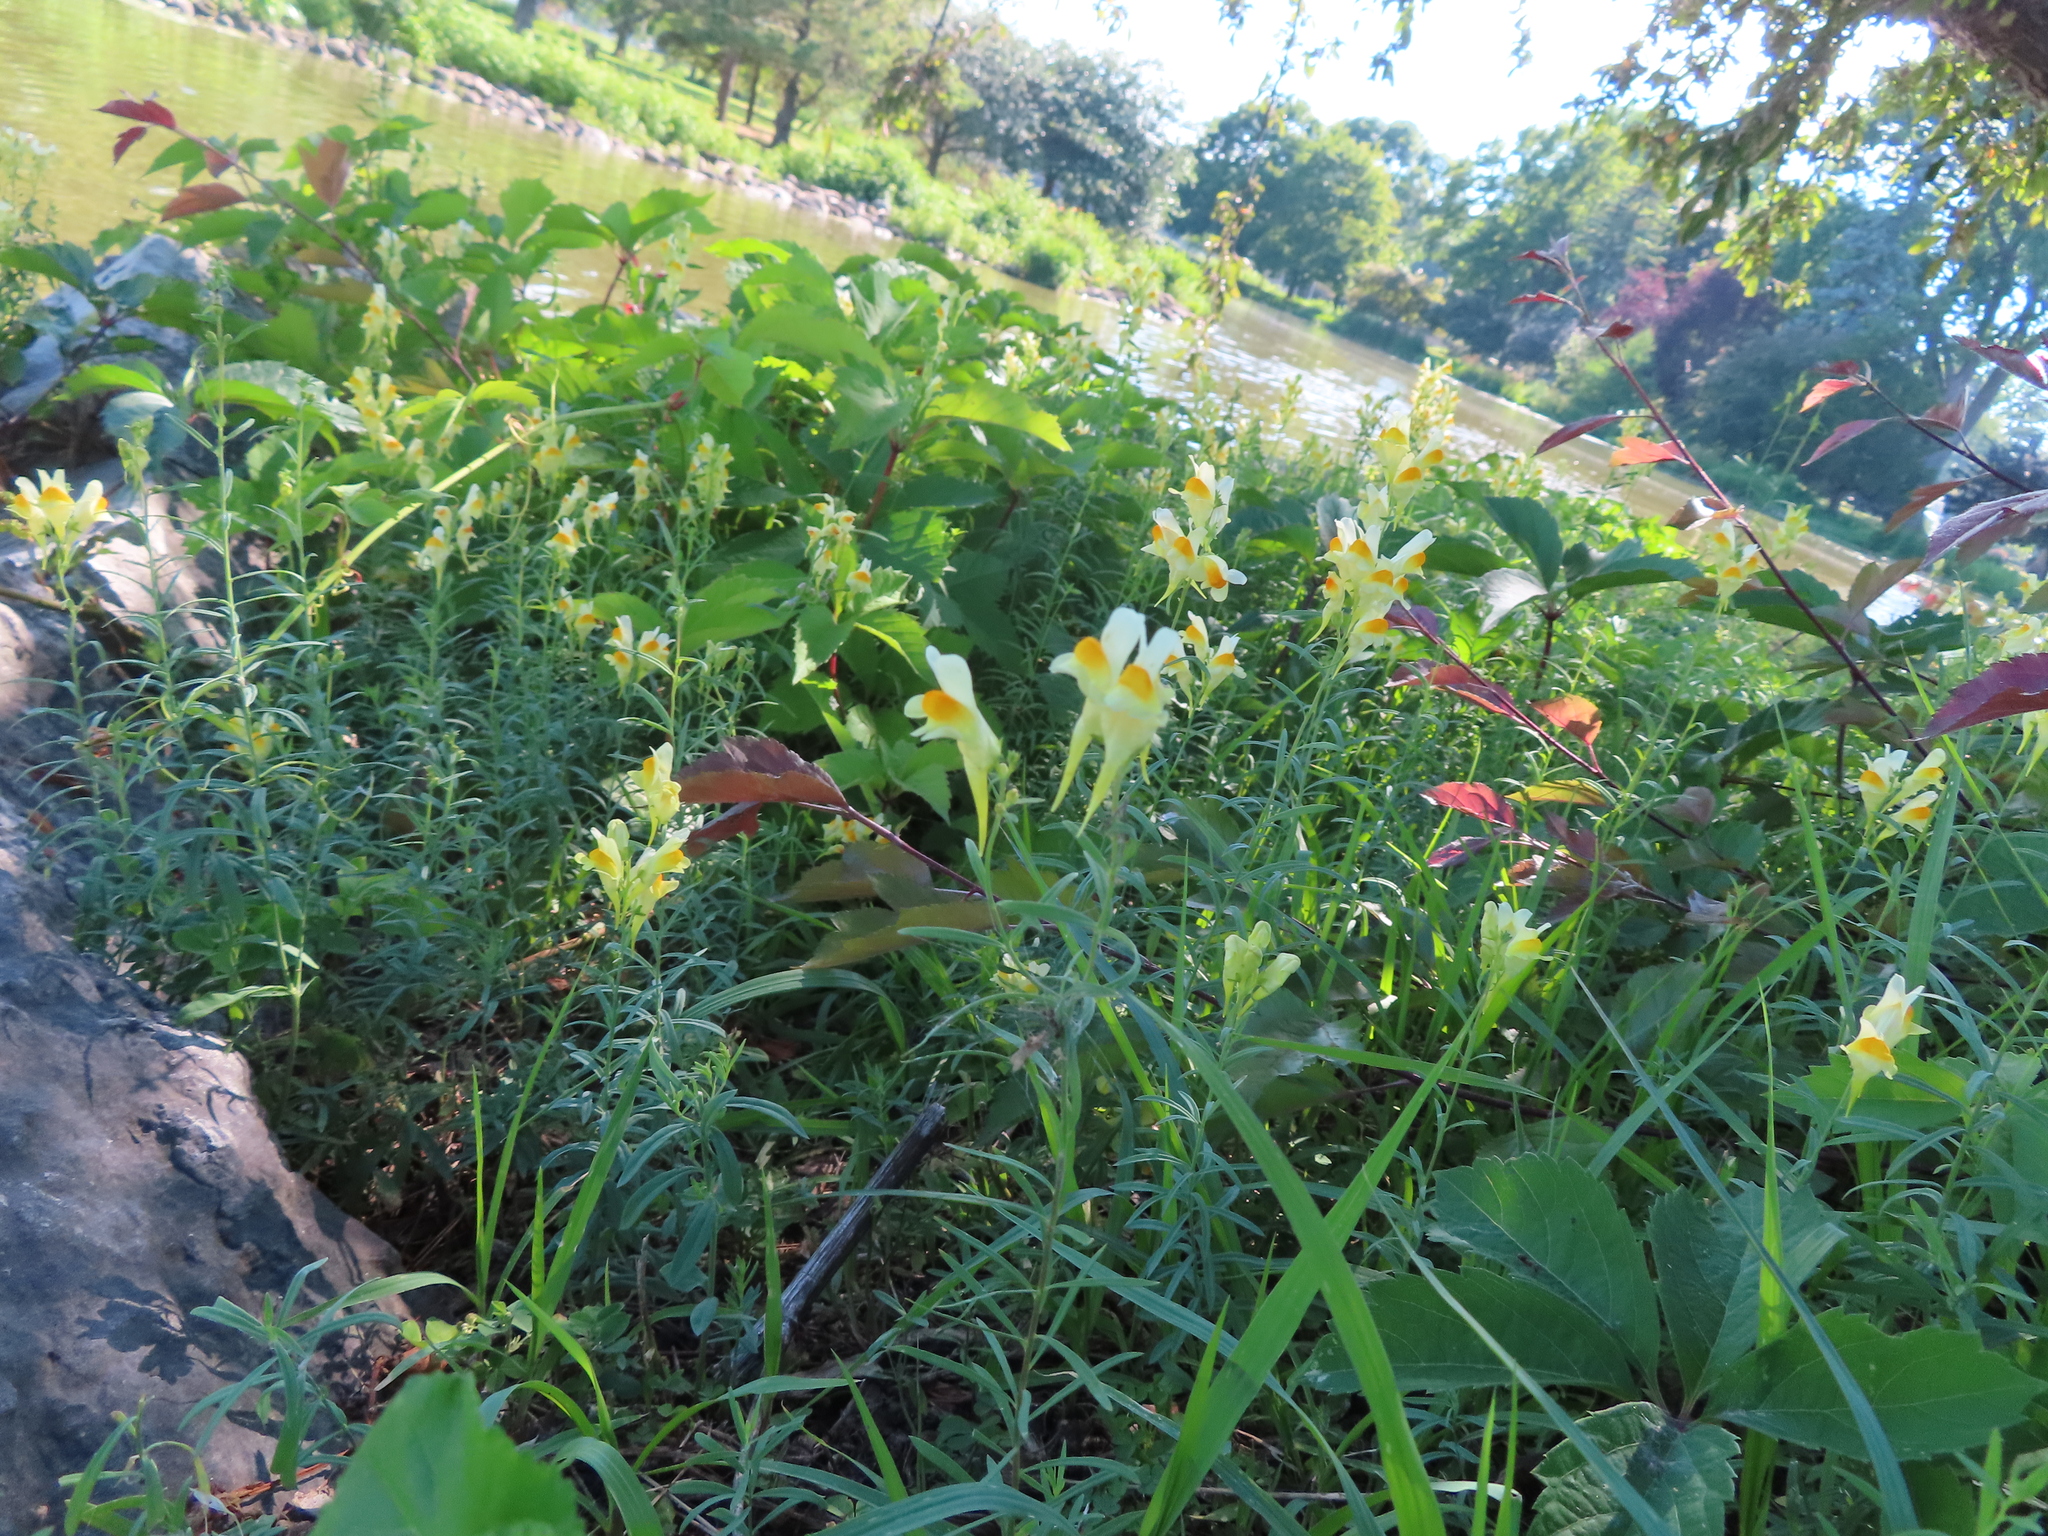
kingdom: Plantae
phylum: Tracheophyta
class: Magnoliopsida
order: Lamiales
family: Plantaginaceae
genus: Linaria
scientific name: Linaria vulgaris
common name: Butter and eggs
